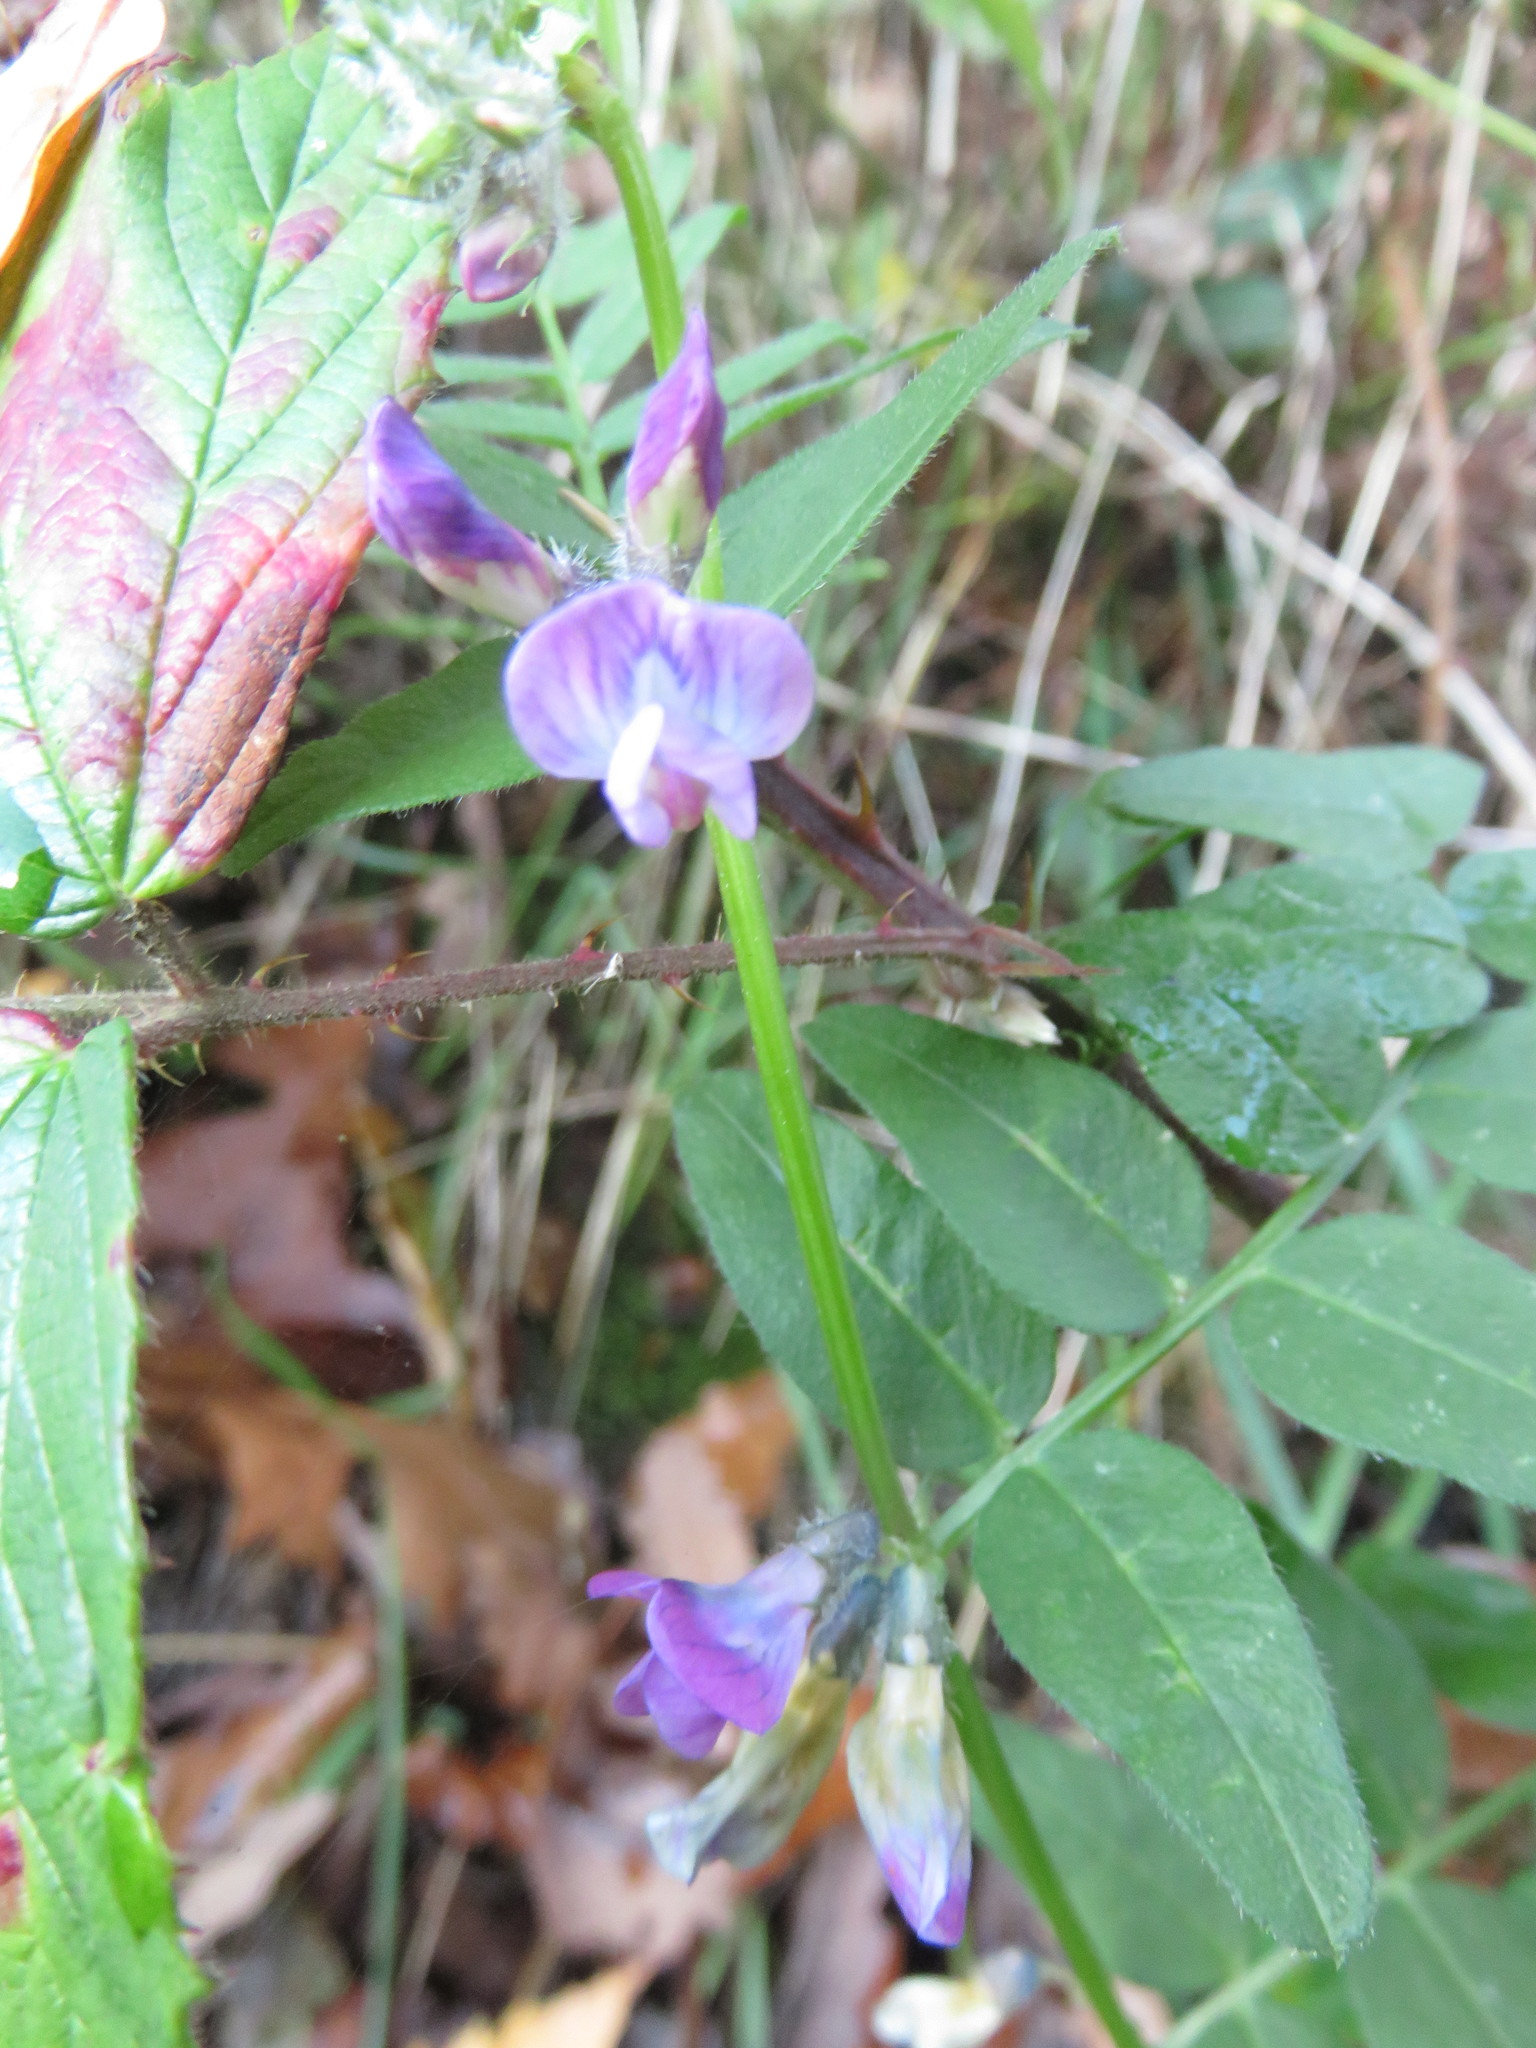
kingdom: Plantae
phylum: Tracheophyta
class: Magnoliopsida
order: Fabales
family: Fabaceae
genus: Vicia
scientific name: Vicia sepium
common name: Bush vetch
